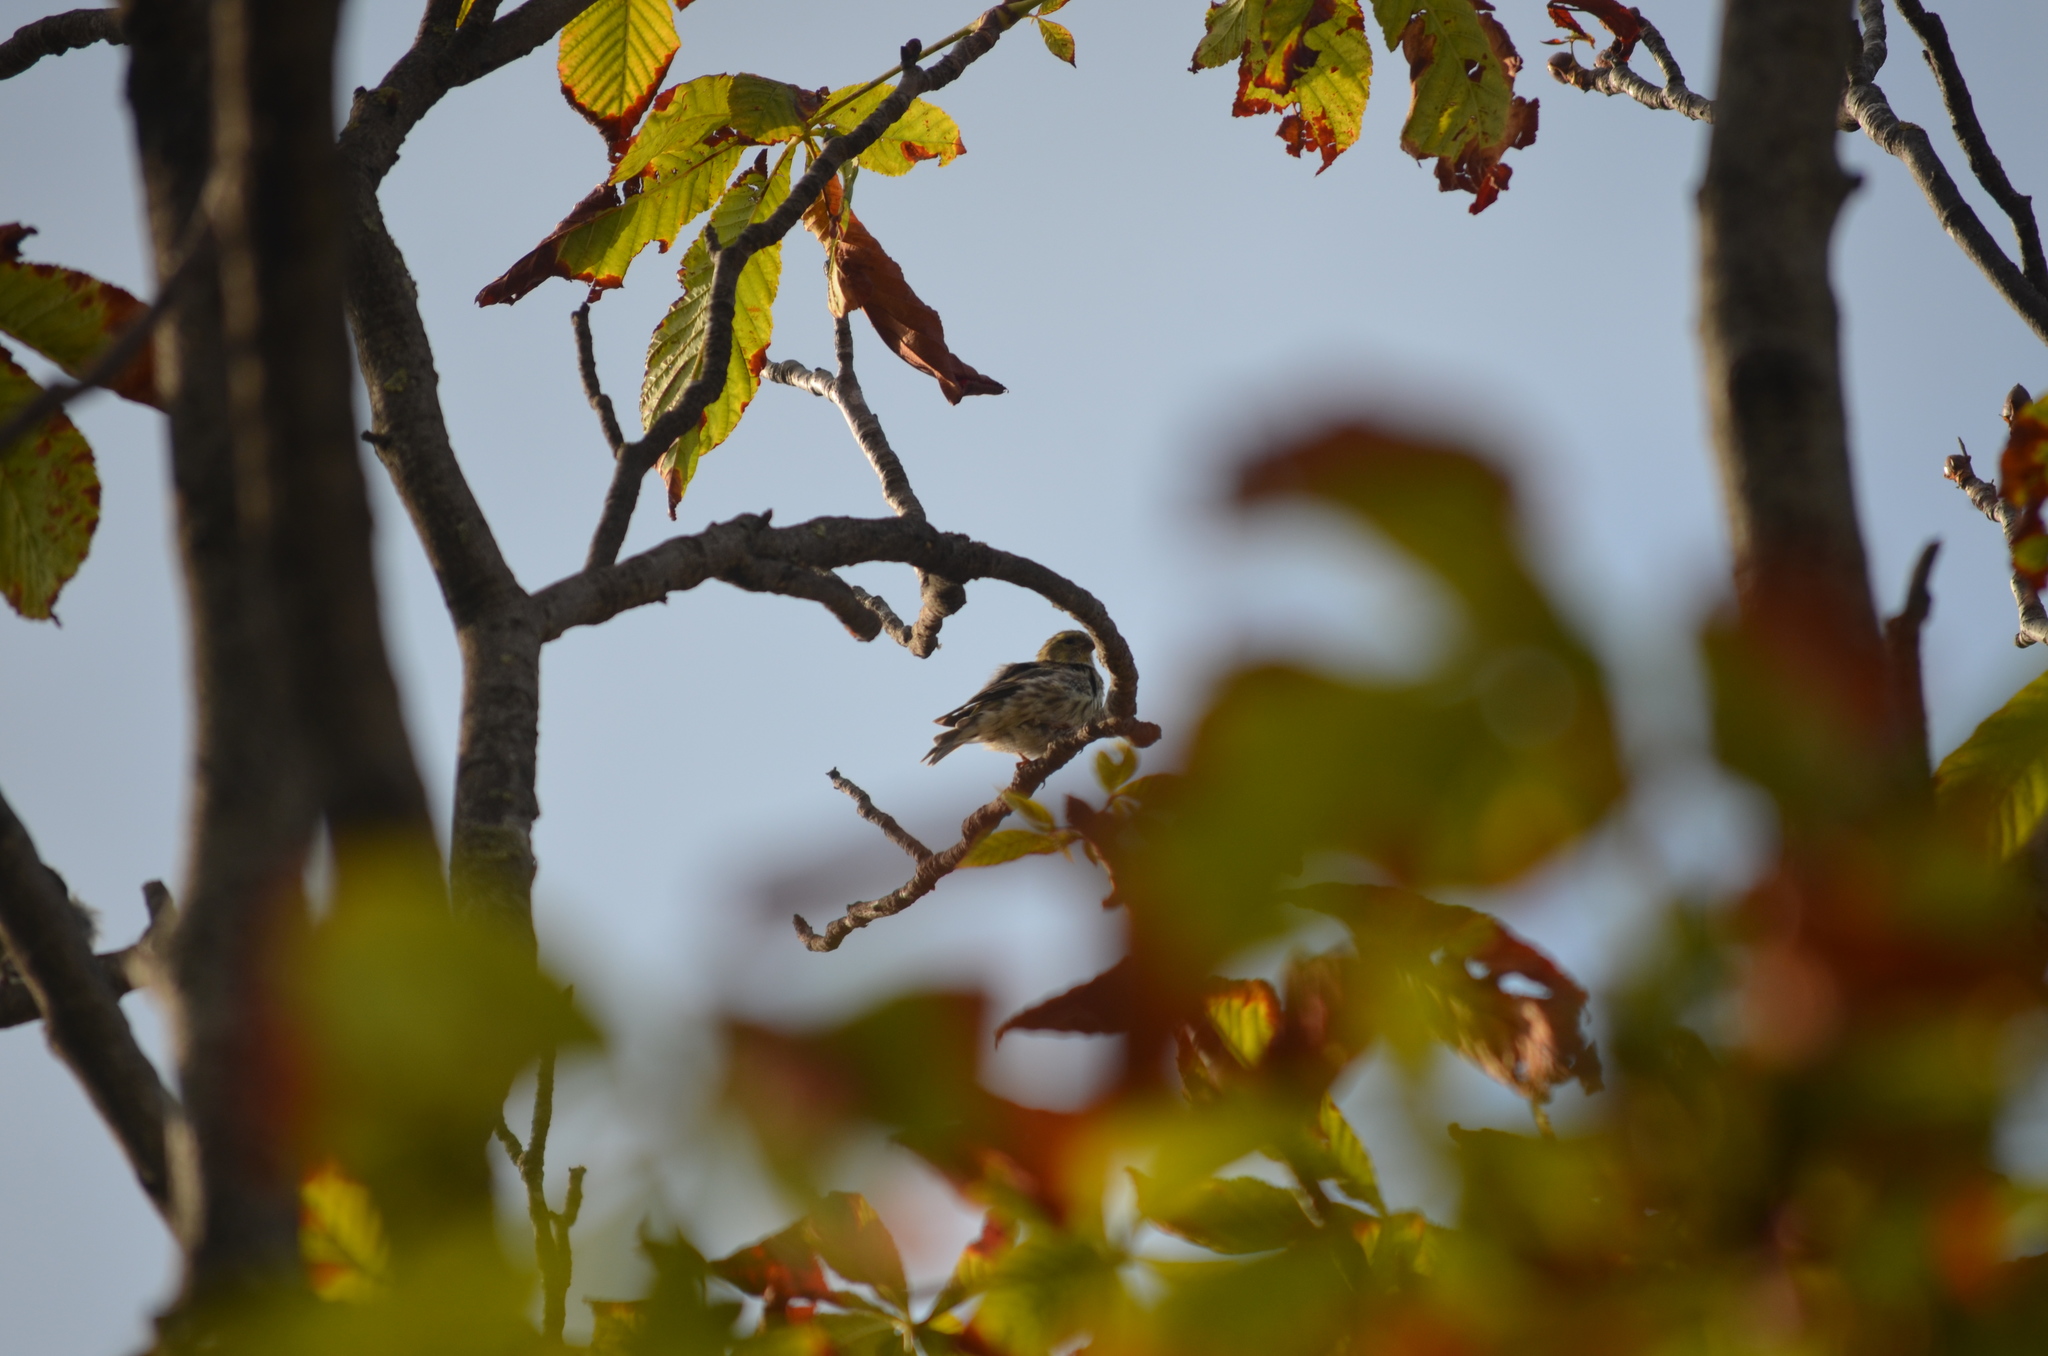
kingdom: Animalia
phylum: Chordata
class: Aves
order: Passeriformes
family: Fringillidae
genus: Serinus
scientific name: Serinus serinus
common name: European serin
